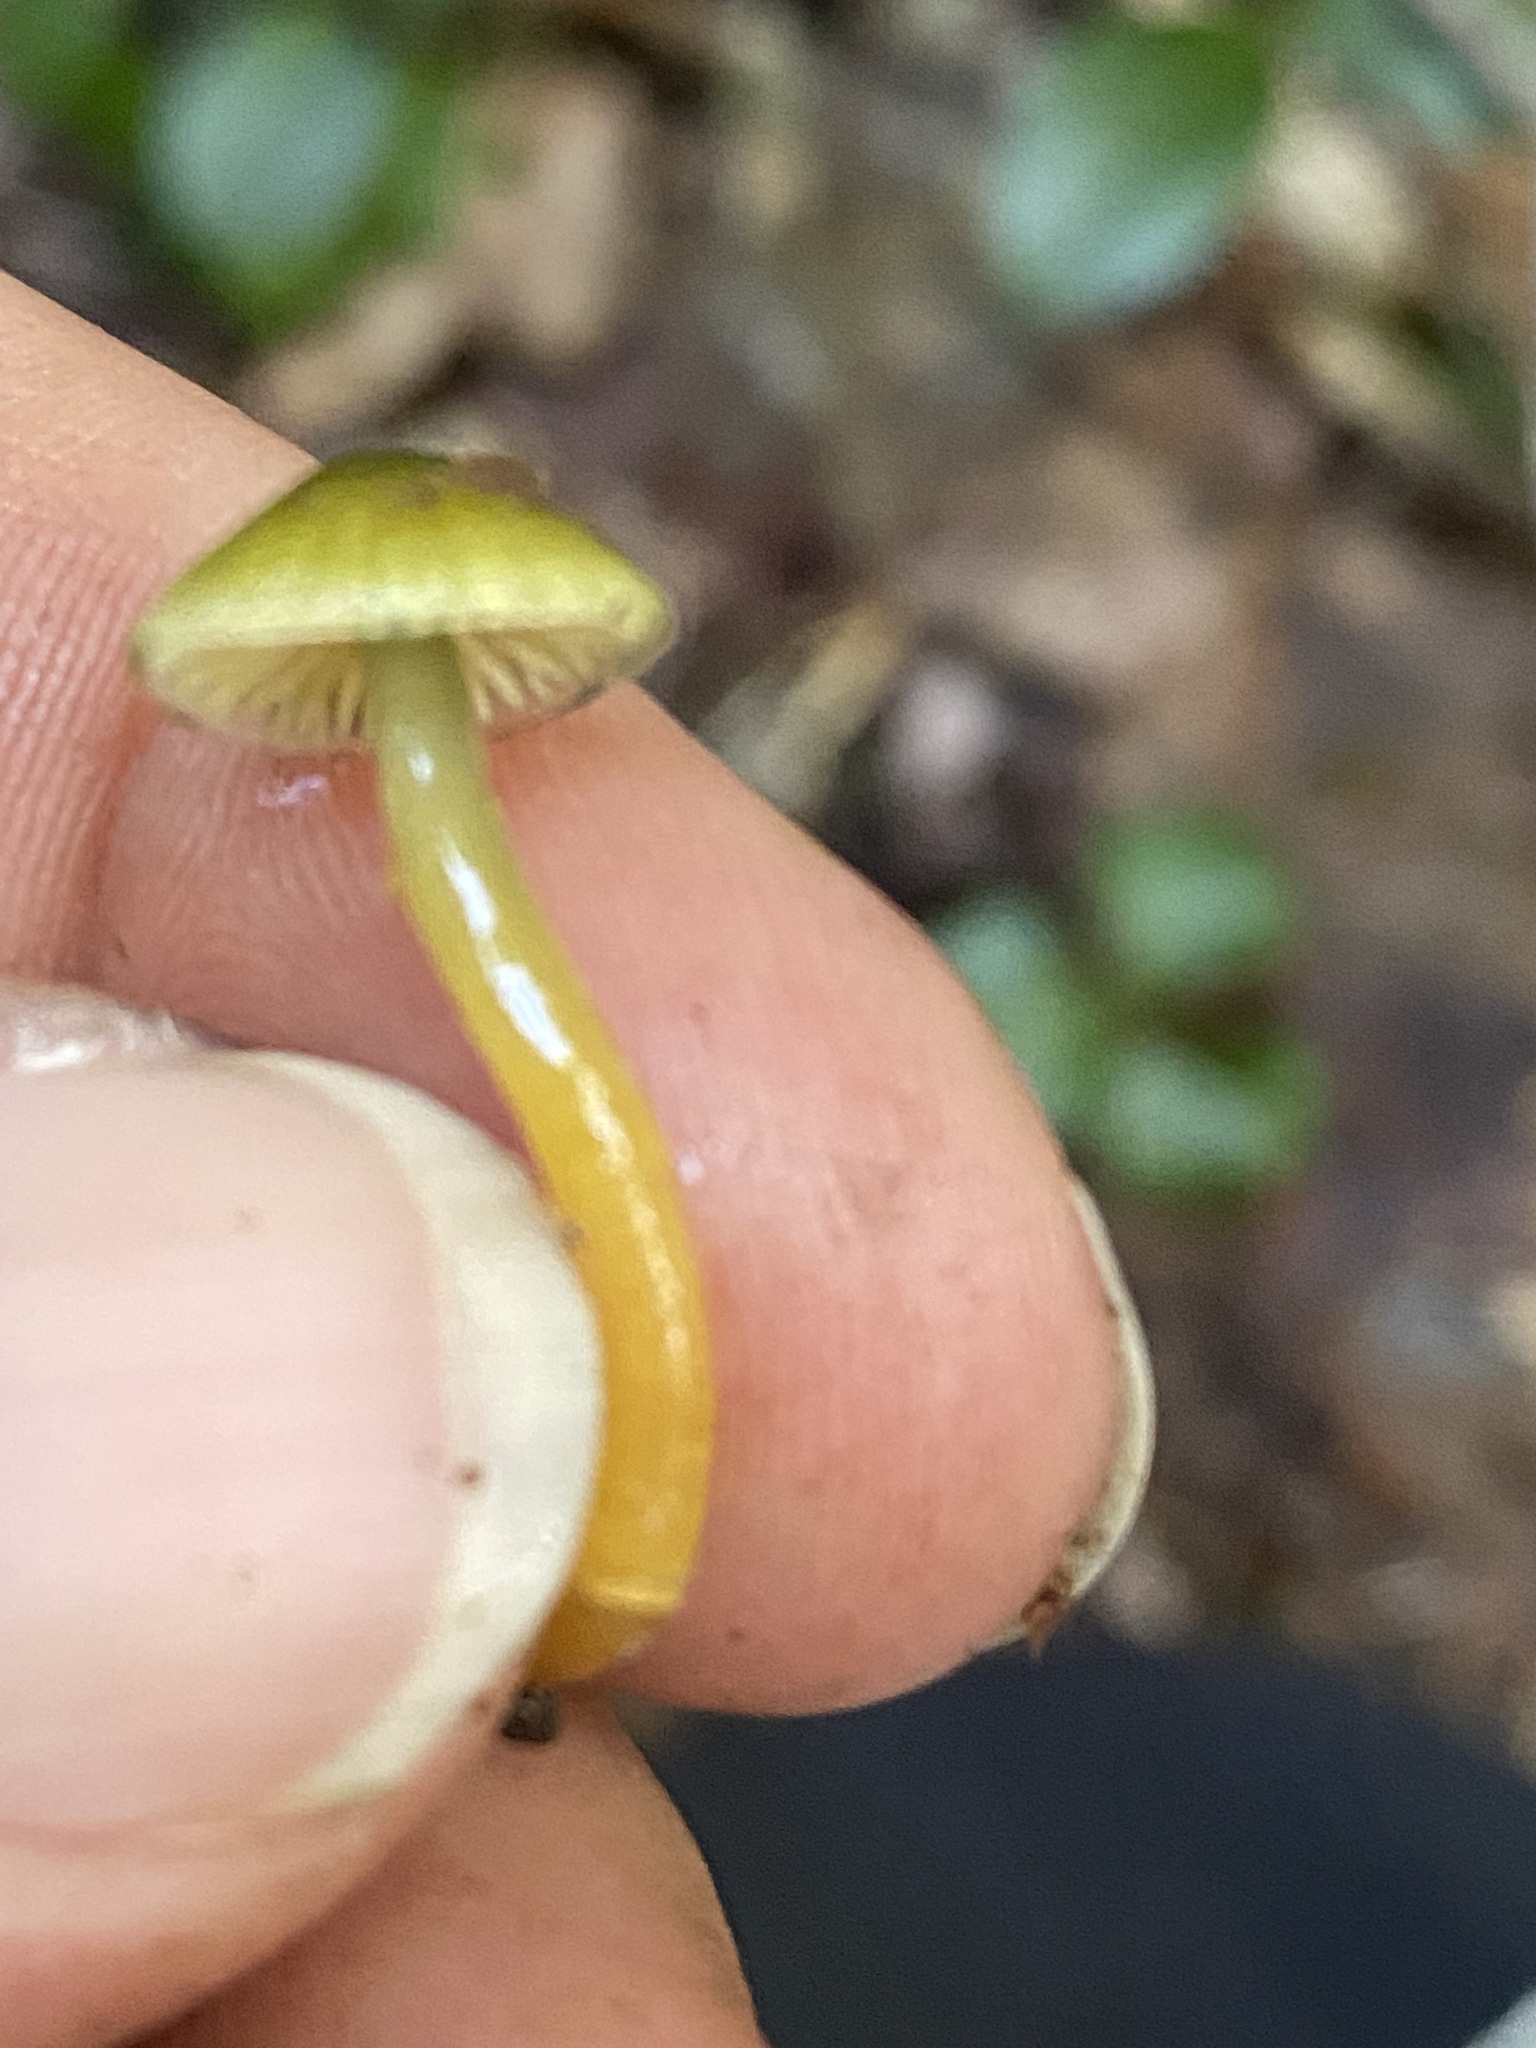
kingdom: Fungi
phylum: Basidiomycota
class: Agaricomycetes
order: Agaricales
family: Hygrophoraceae
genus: Gliophorus
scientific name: Gliophorus psittacinus
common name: Parrot wax-cap
